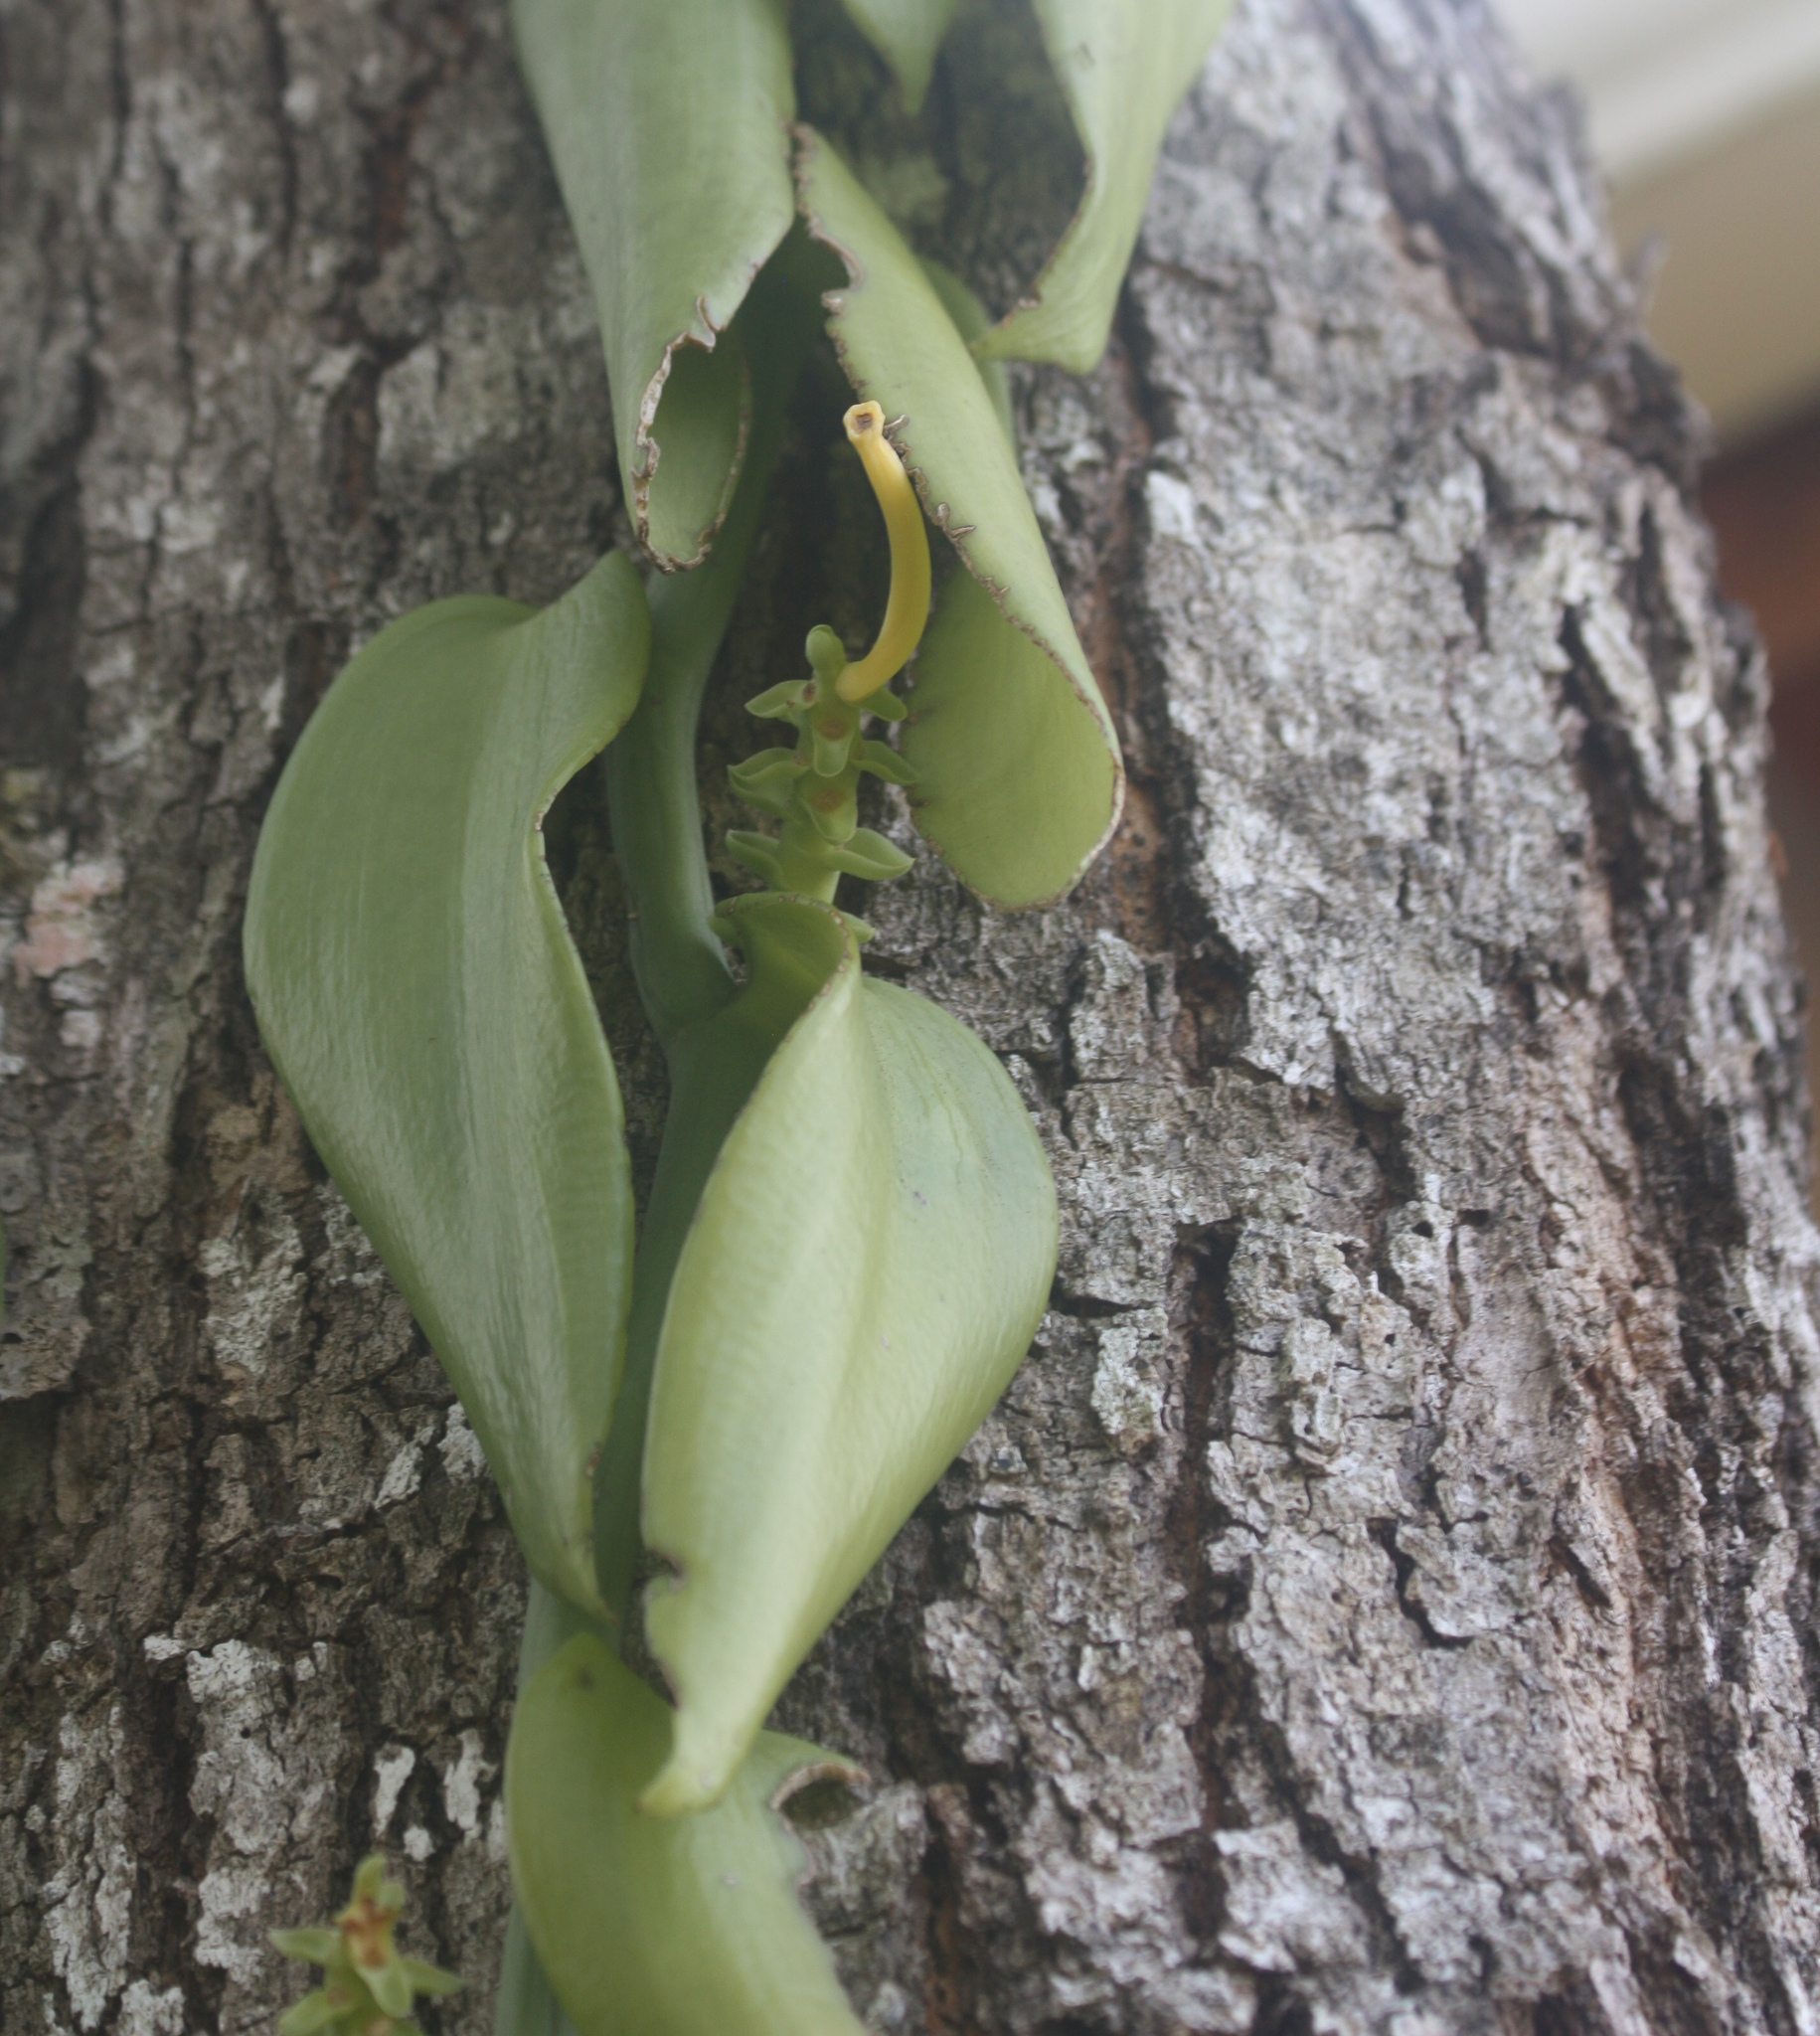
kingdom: Plantae
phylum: Tracheophyta
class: Liliopsida
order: Asparagales
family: Orchidaceae
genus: Vanilla
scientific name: Vanilla pompona
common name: West indian vanilla
